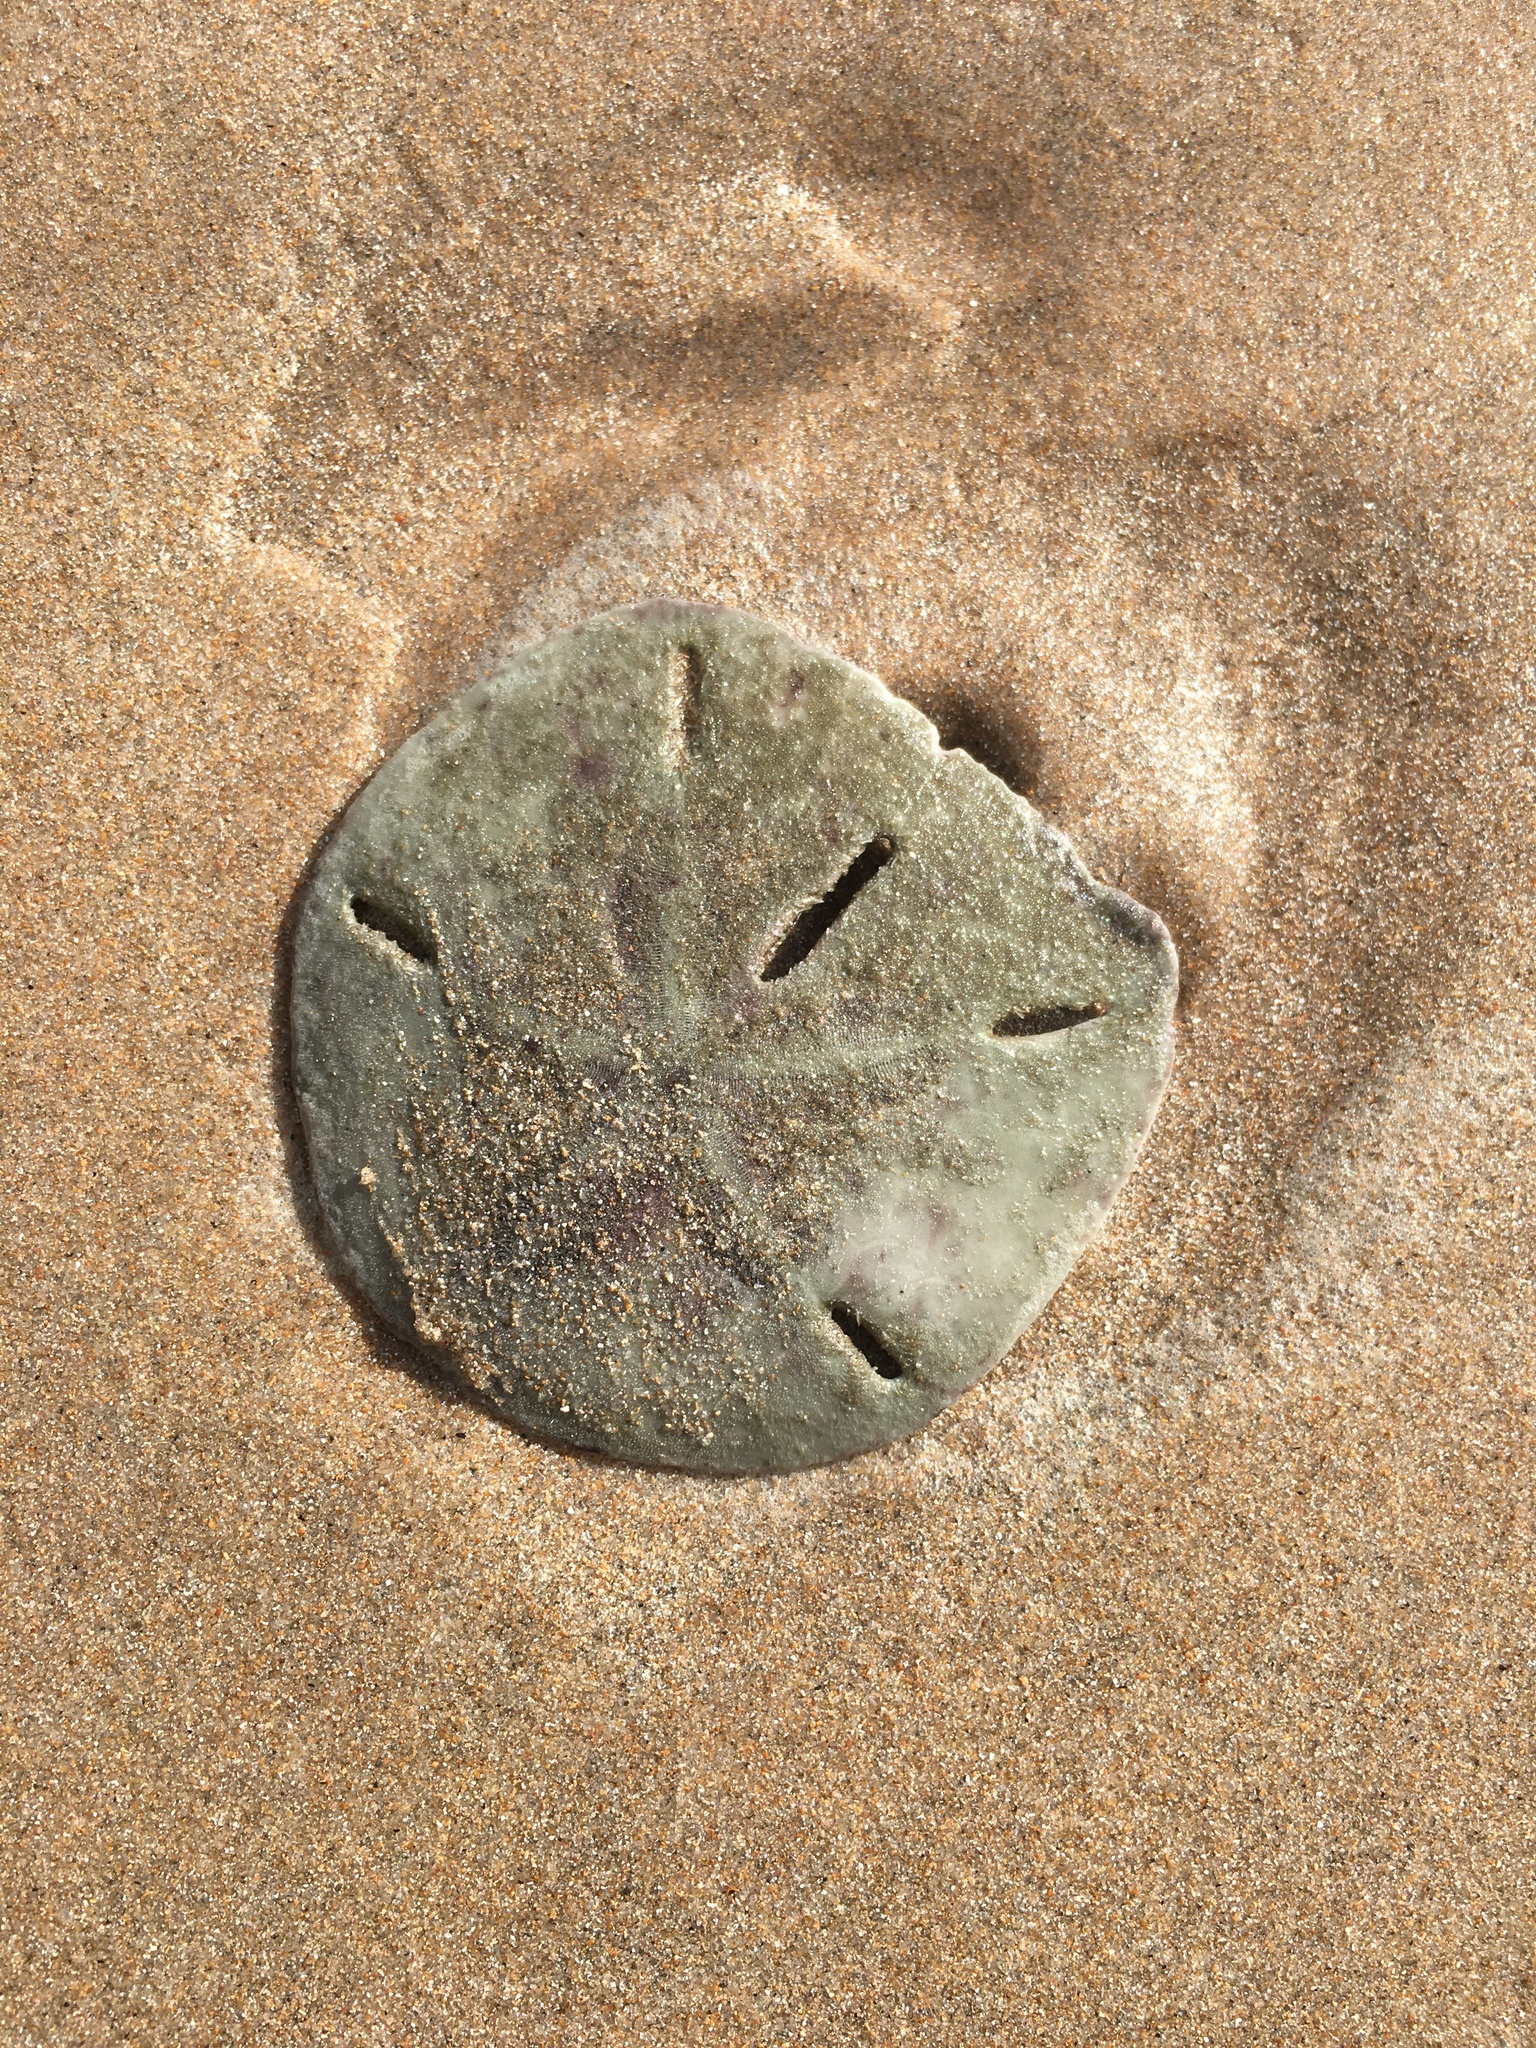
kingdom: Animalia
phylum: Echinodermata
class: Echinoidea
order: Echinolampadacea
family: Mellitidae
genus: Mellita
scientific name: Mellita quinquiesperforata
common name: Sand dollar
